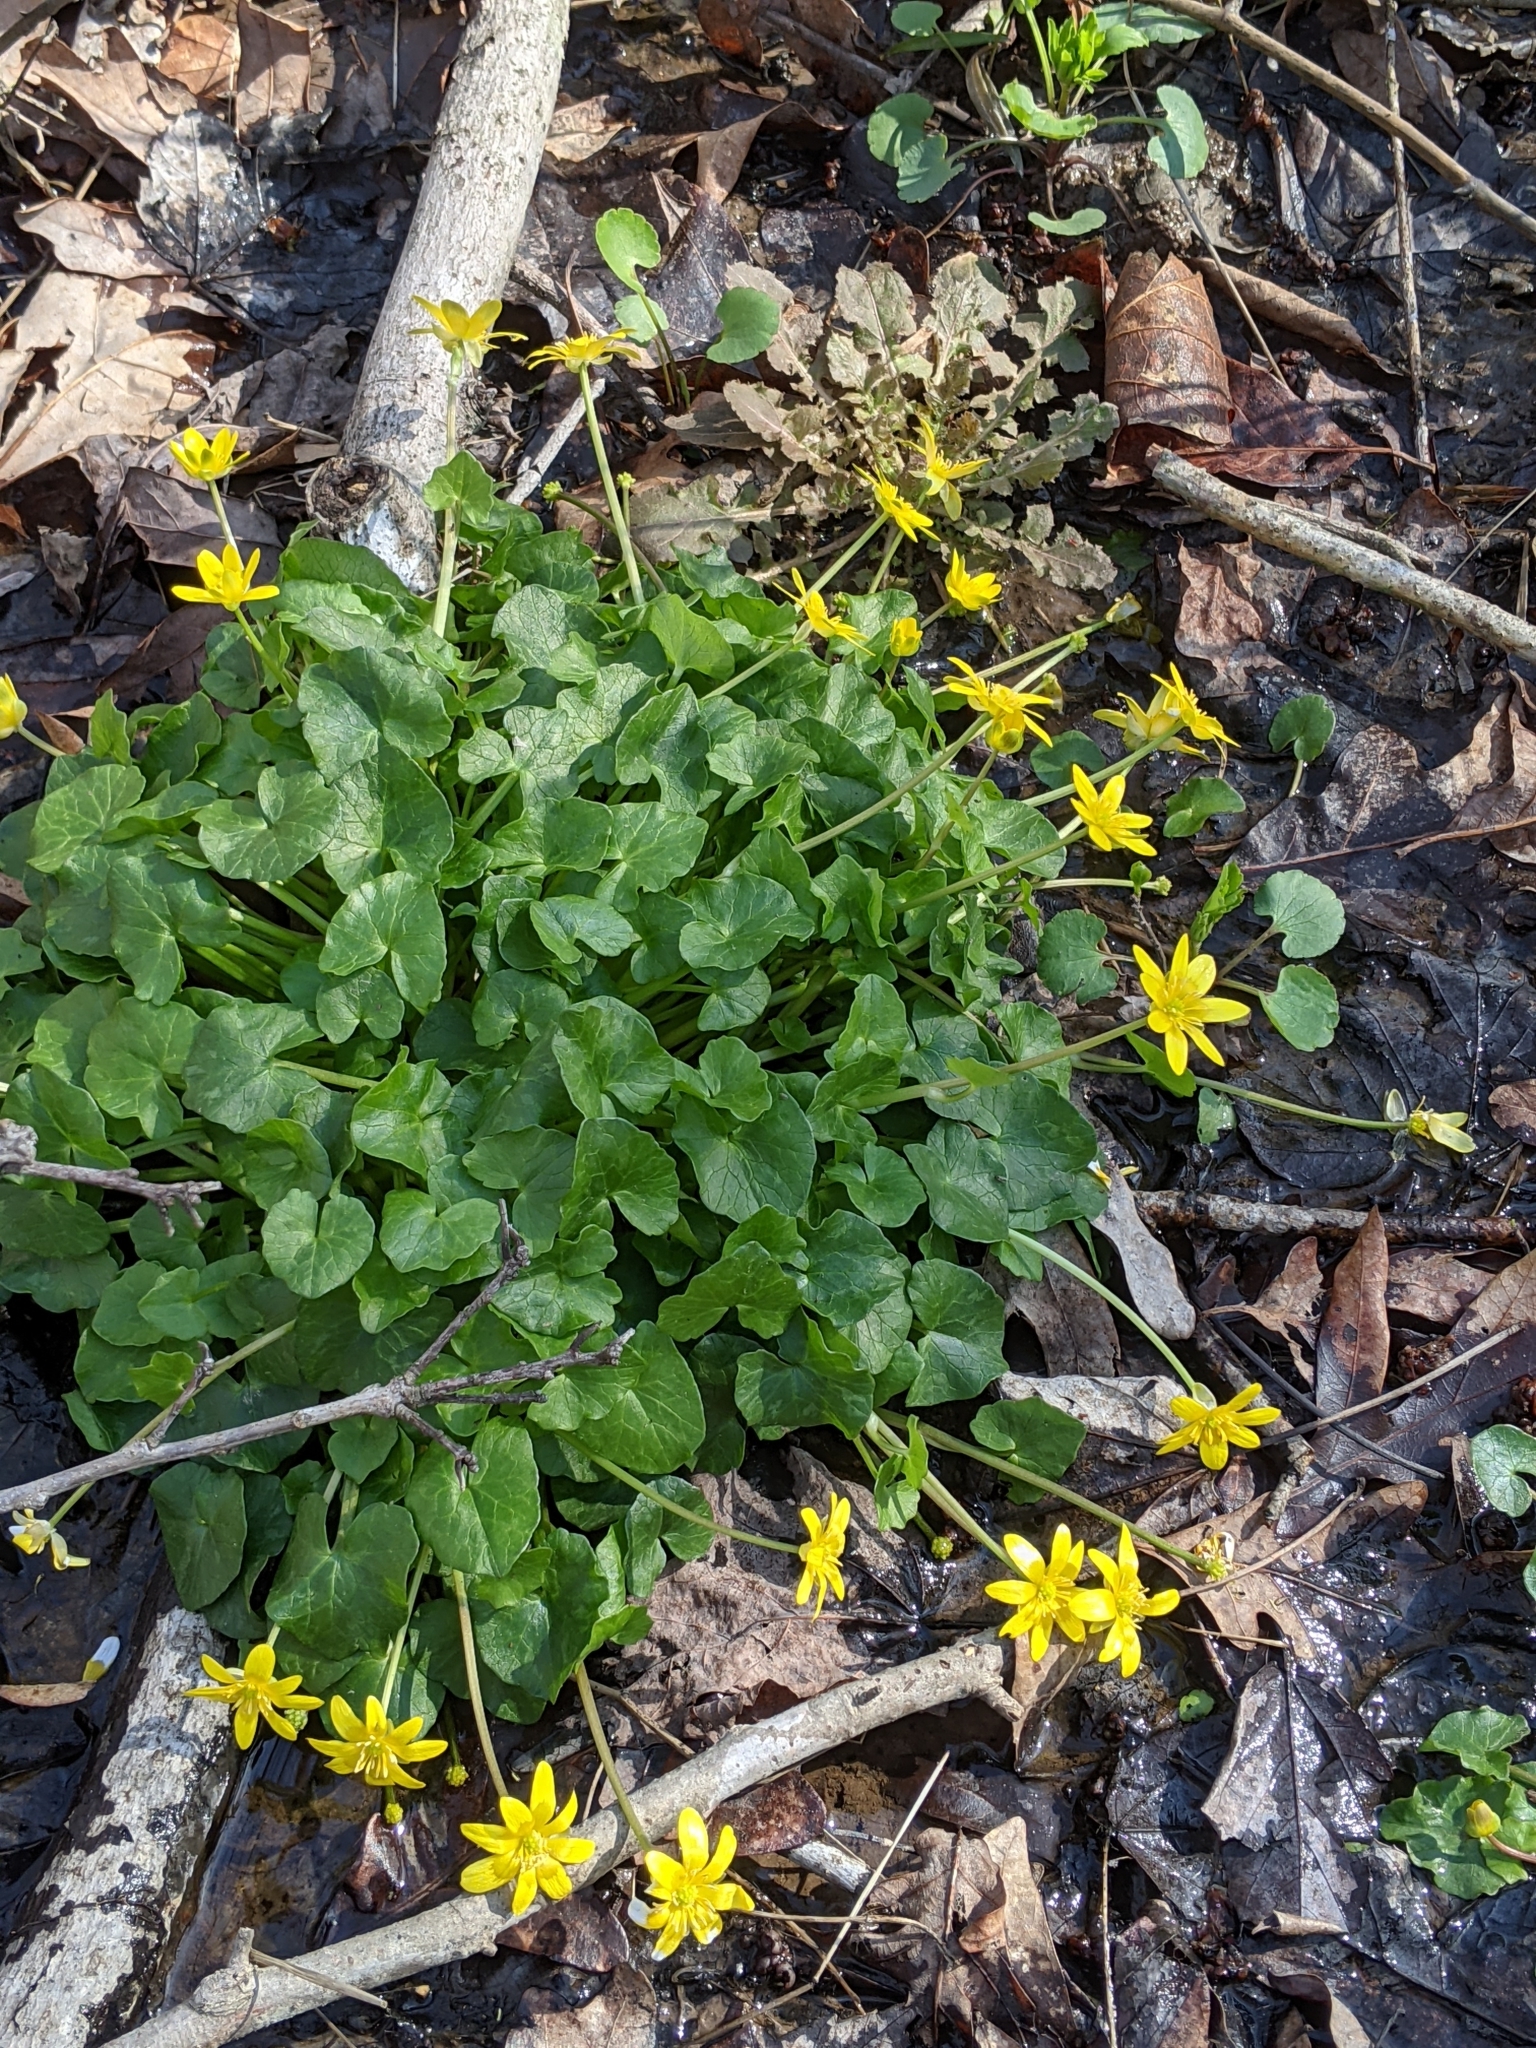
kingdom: Plantae
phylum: Tracheophyta
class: Magnoliopsida
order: Ranunculales
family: Ranunculaceae
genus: Ficaria
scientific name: Ficaria verna
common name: Lesser celandine
